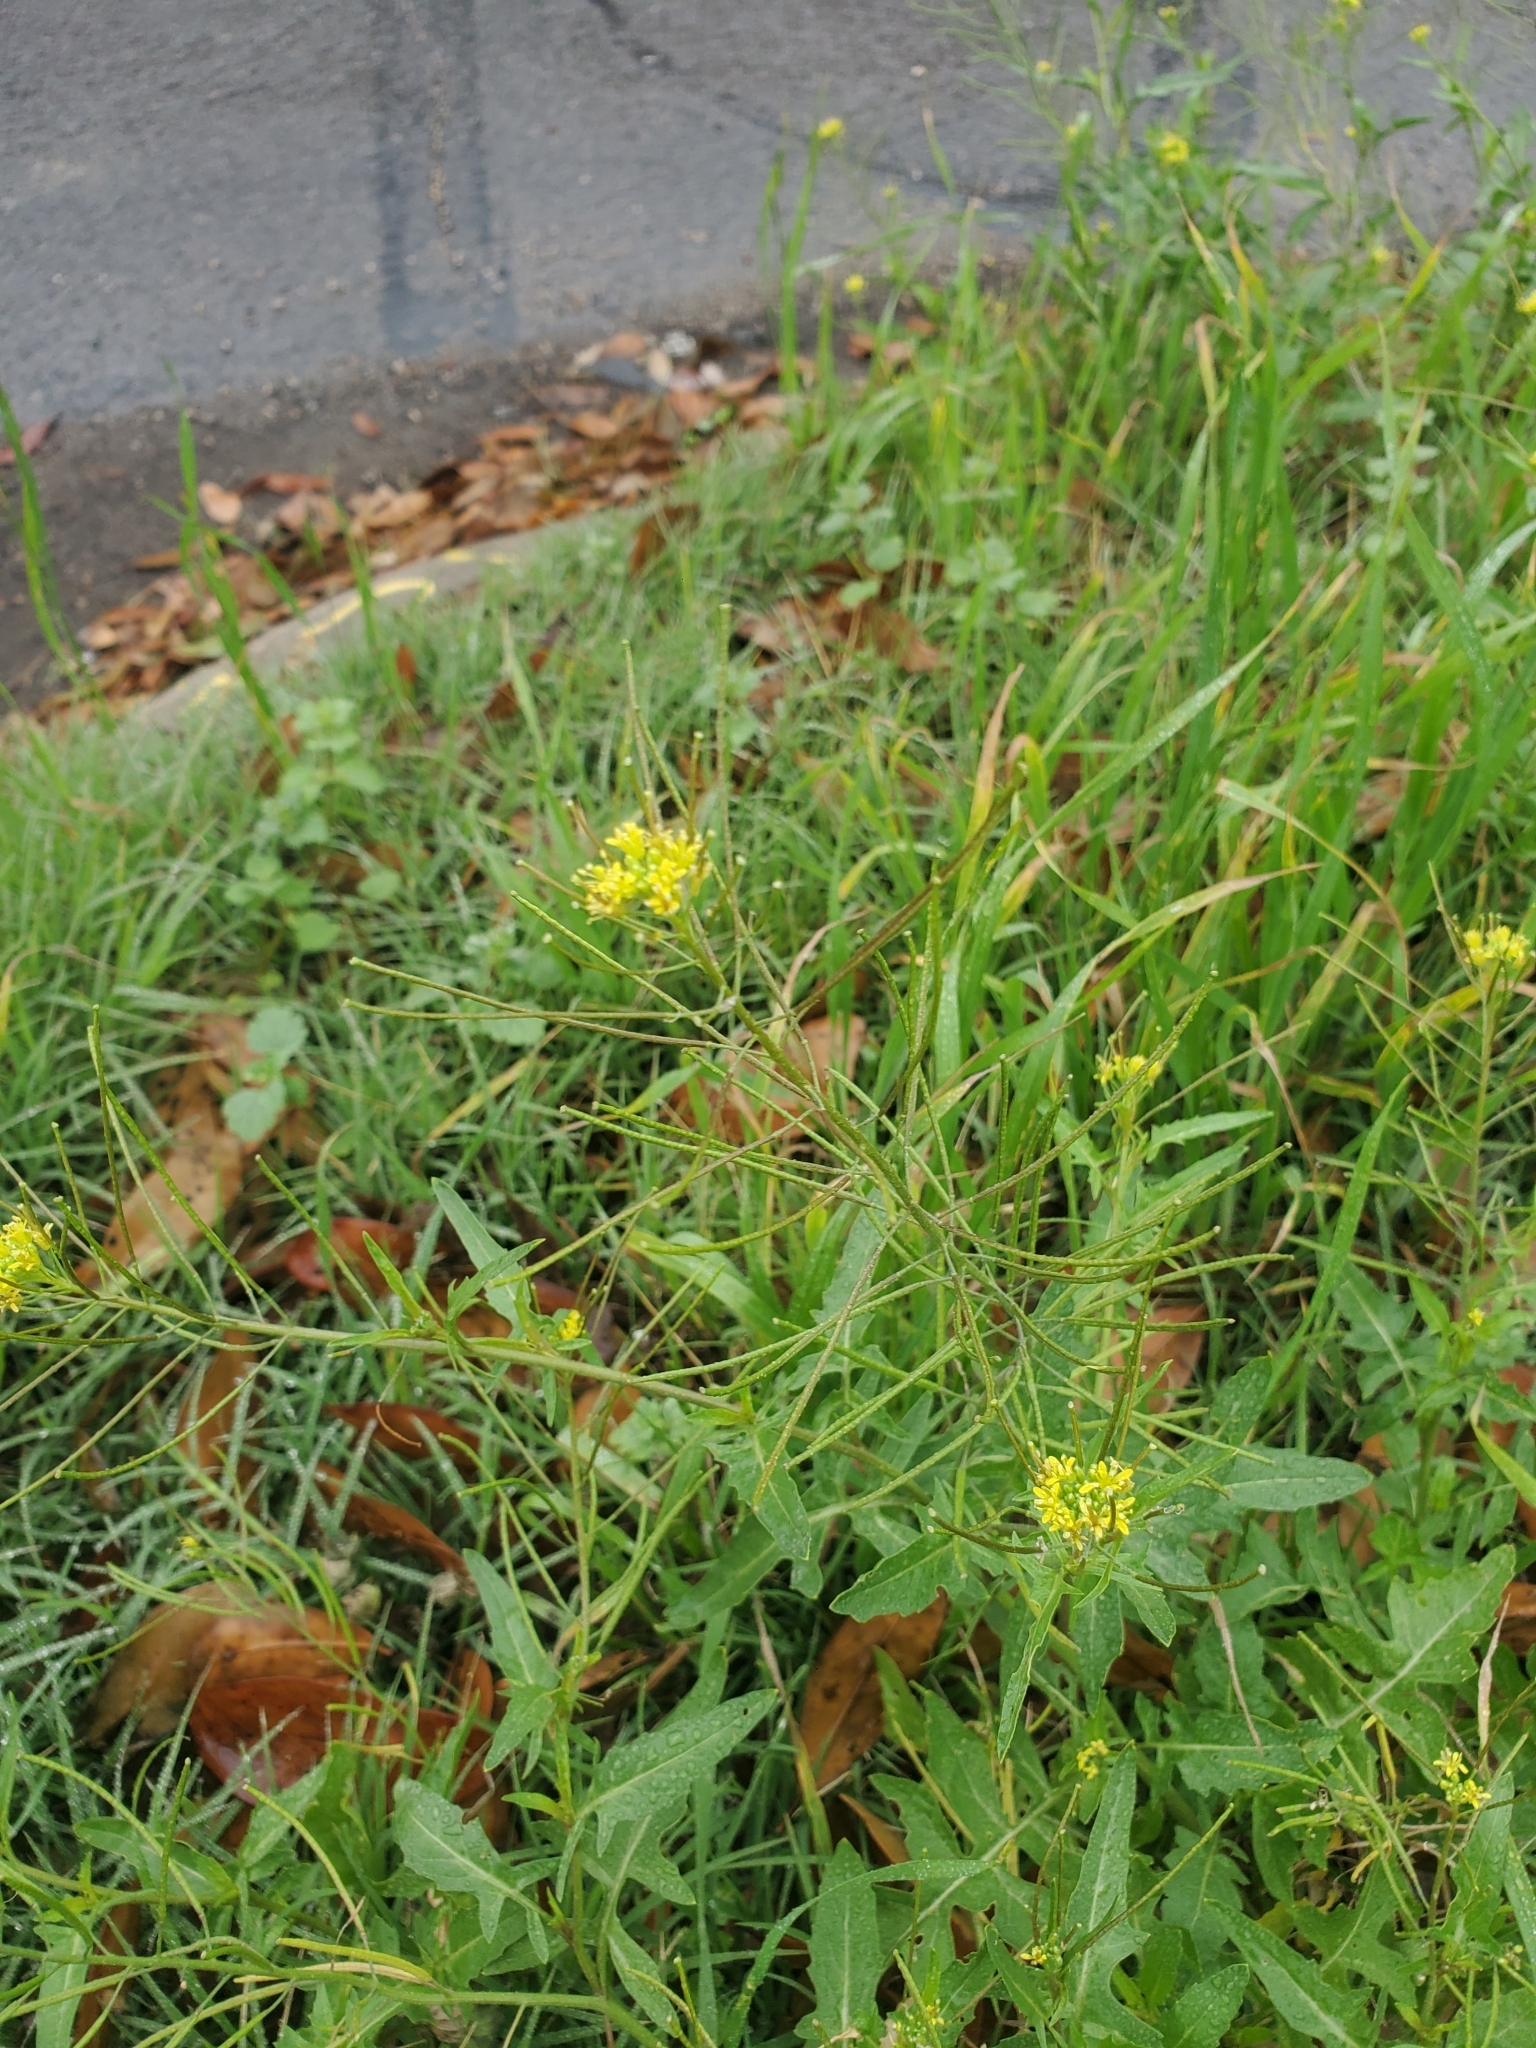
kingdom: Plantae
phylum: Tracheophyta
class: Magnoliopsida
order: Brassicales
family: Brassicaceae
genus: Sisymbrium
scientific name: Sisymbrium irio
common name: London rocket
